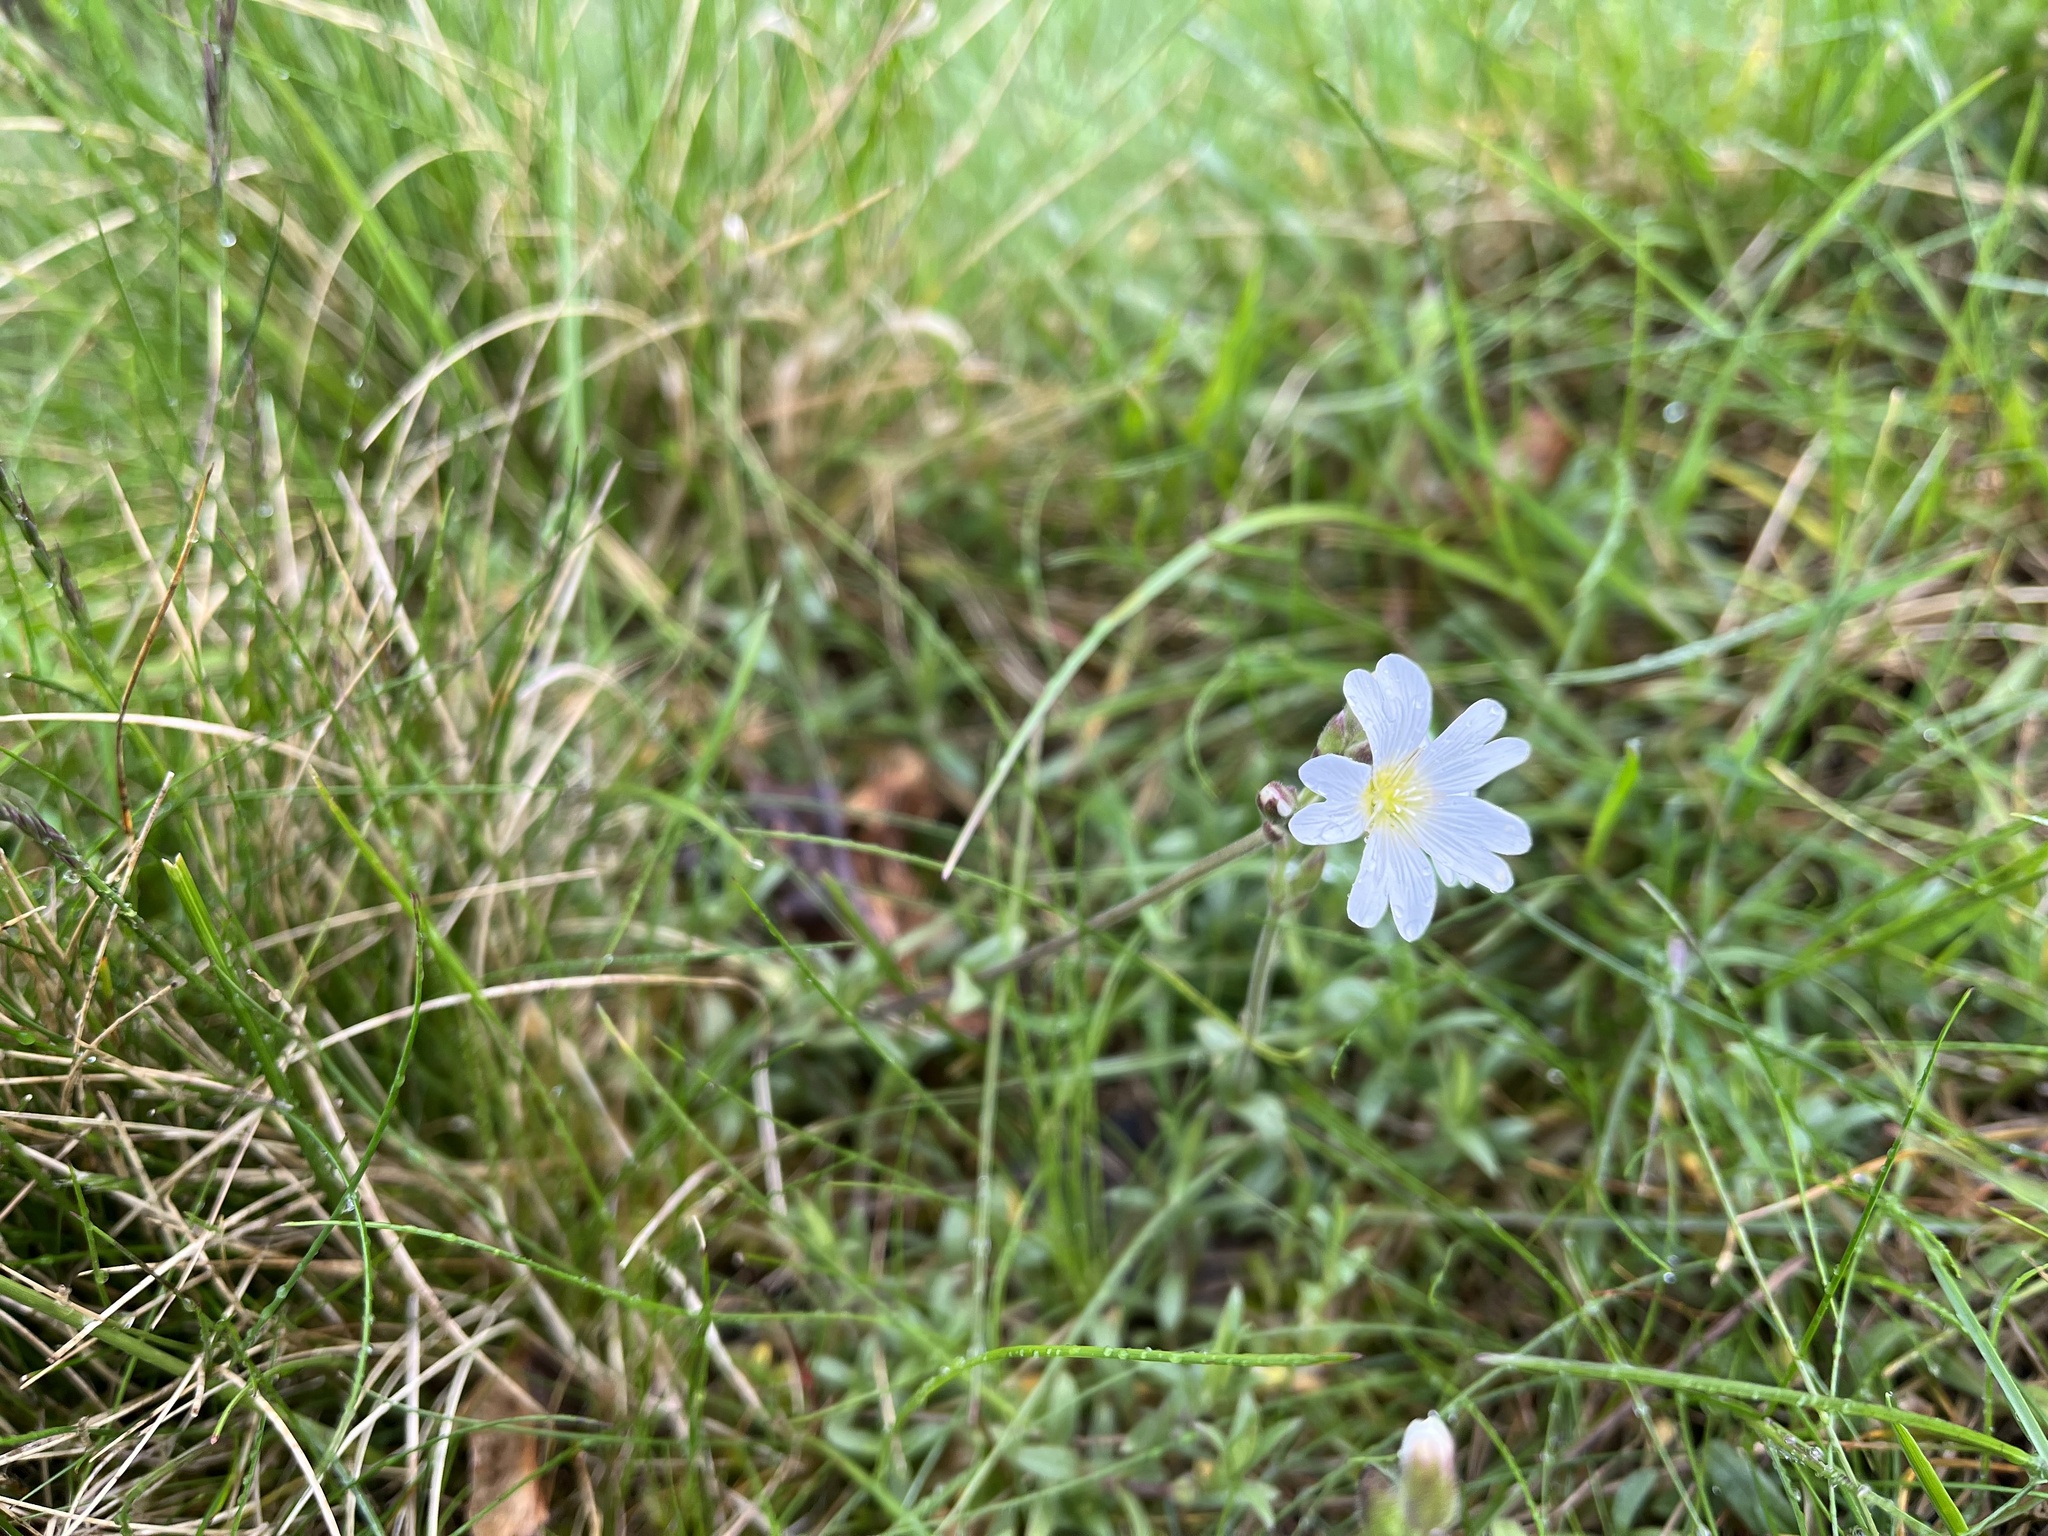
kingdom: Plantae
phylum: Tracheophyta
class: Magnoliopsida
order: Caryophyllales
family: Caryophyllaceae
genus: Cerastium
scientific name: Cerastium arvense
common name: Field mouse-ear
